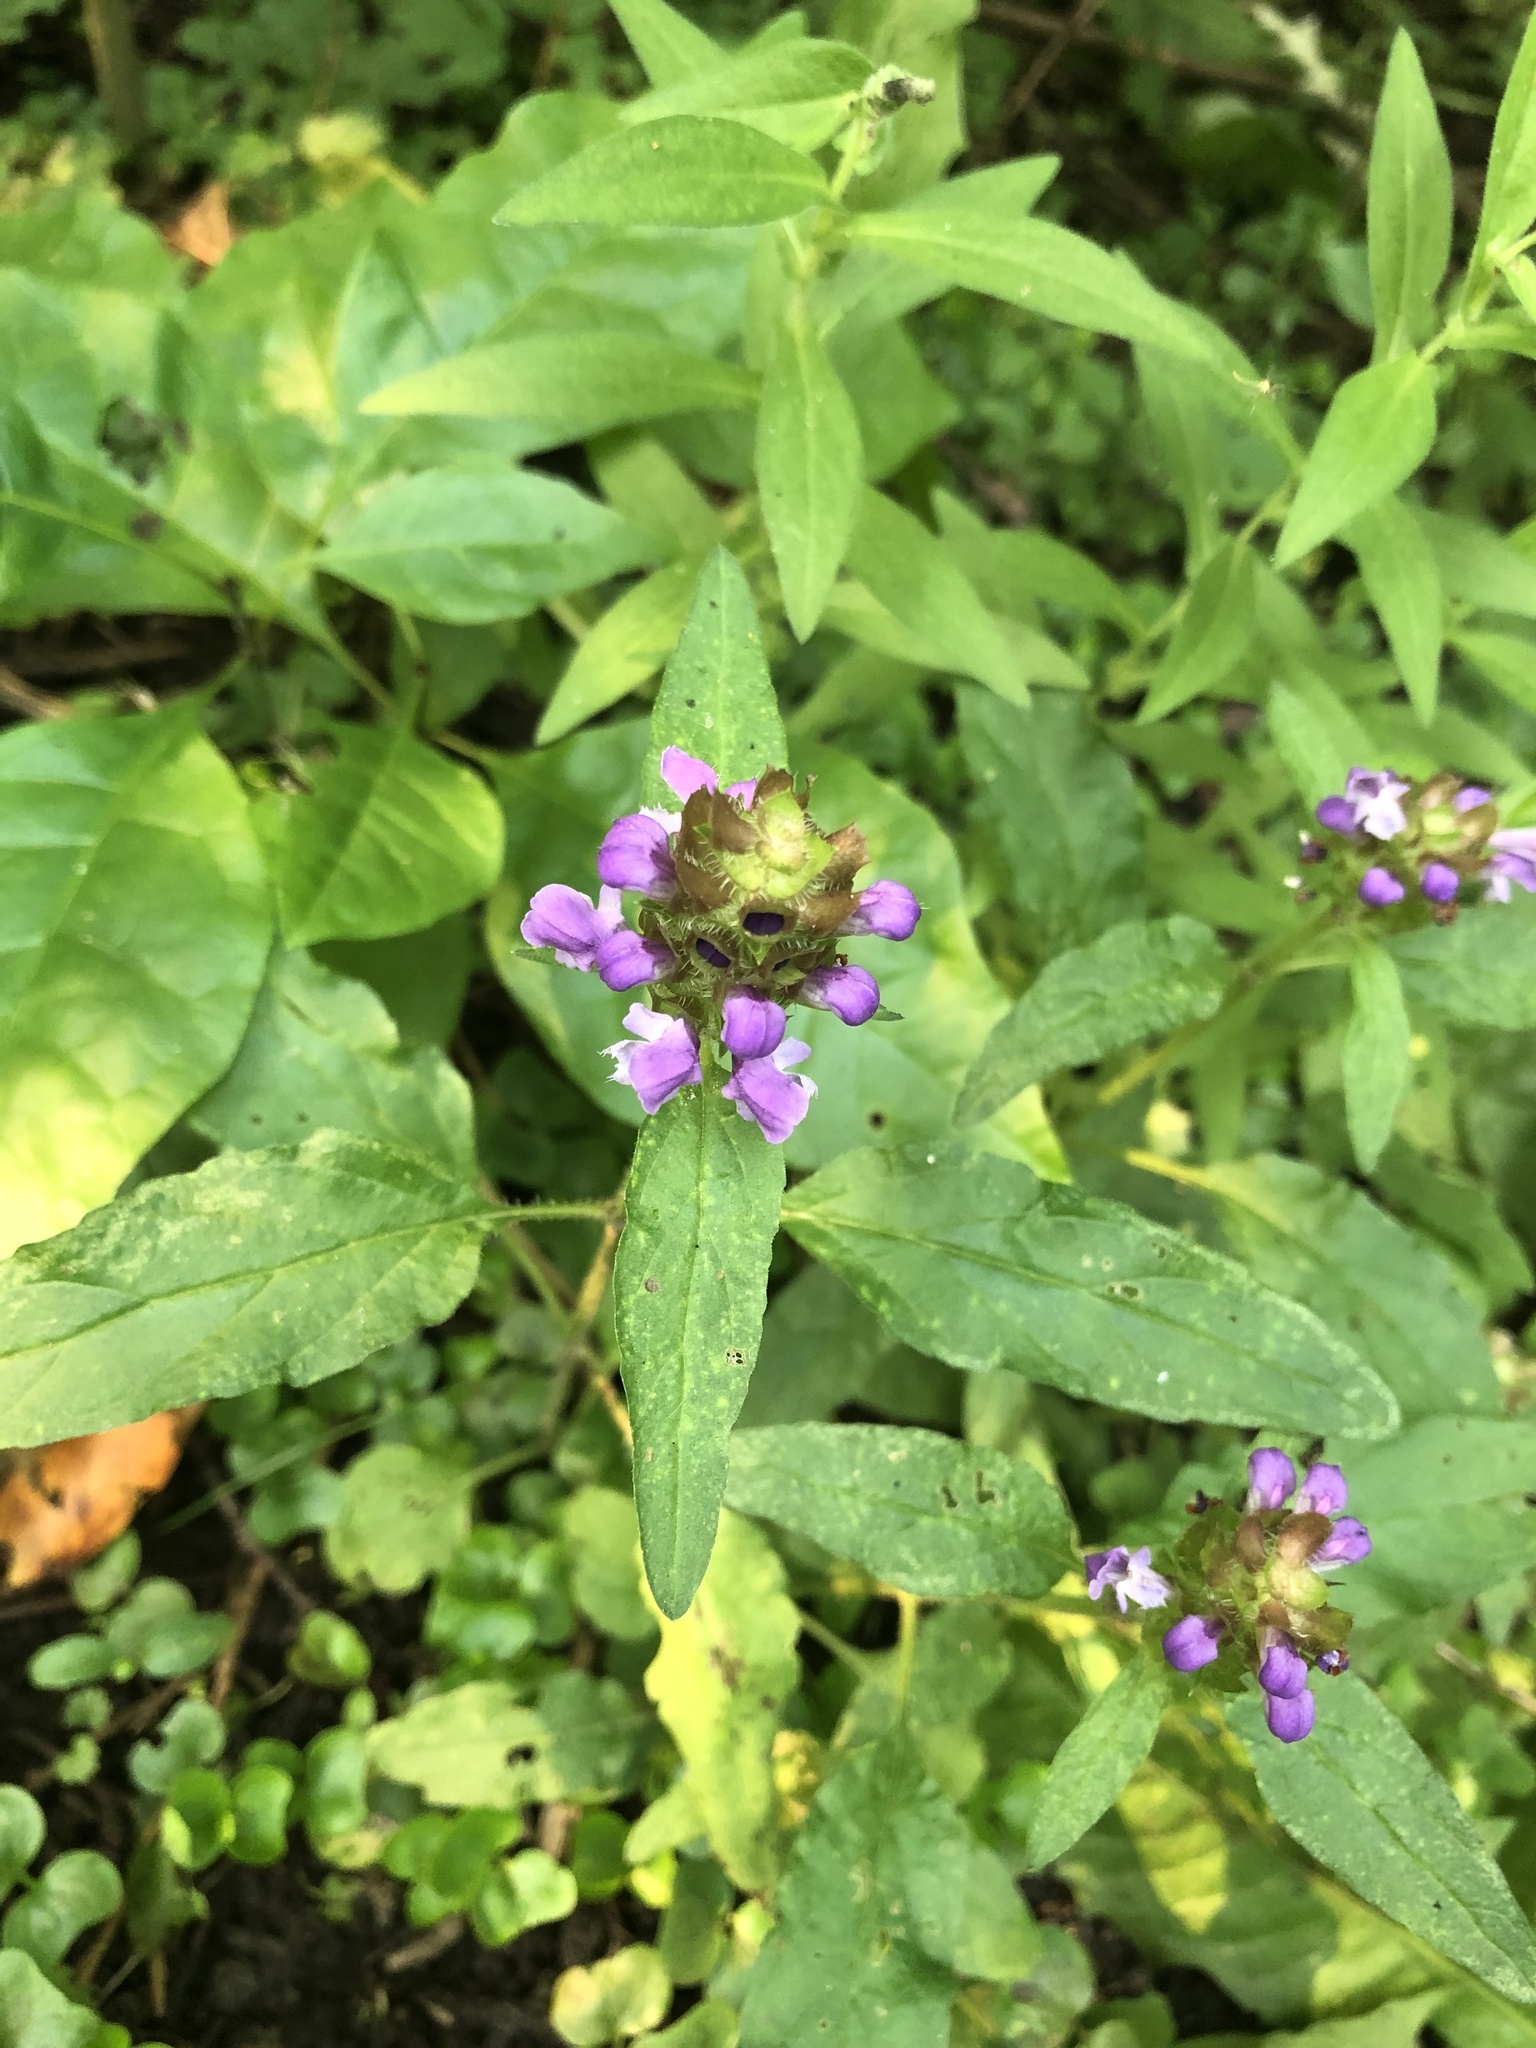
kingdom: Plantae
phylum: Tracheophyta
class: Magnoliopsida
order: Lamiales
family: Lamiaceae
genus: Prunella
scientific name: Prunella vulgaris
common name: Heal-all
